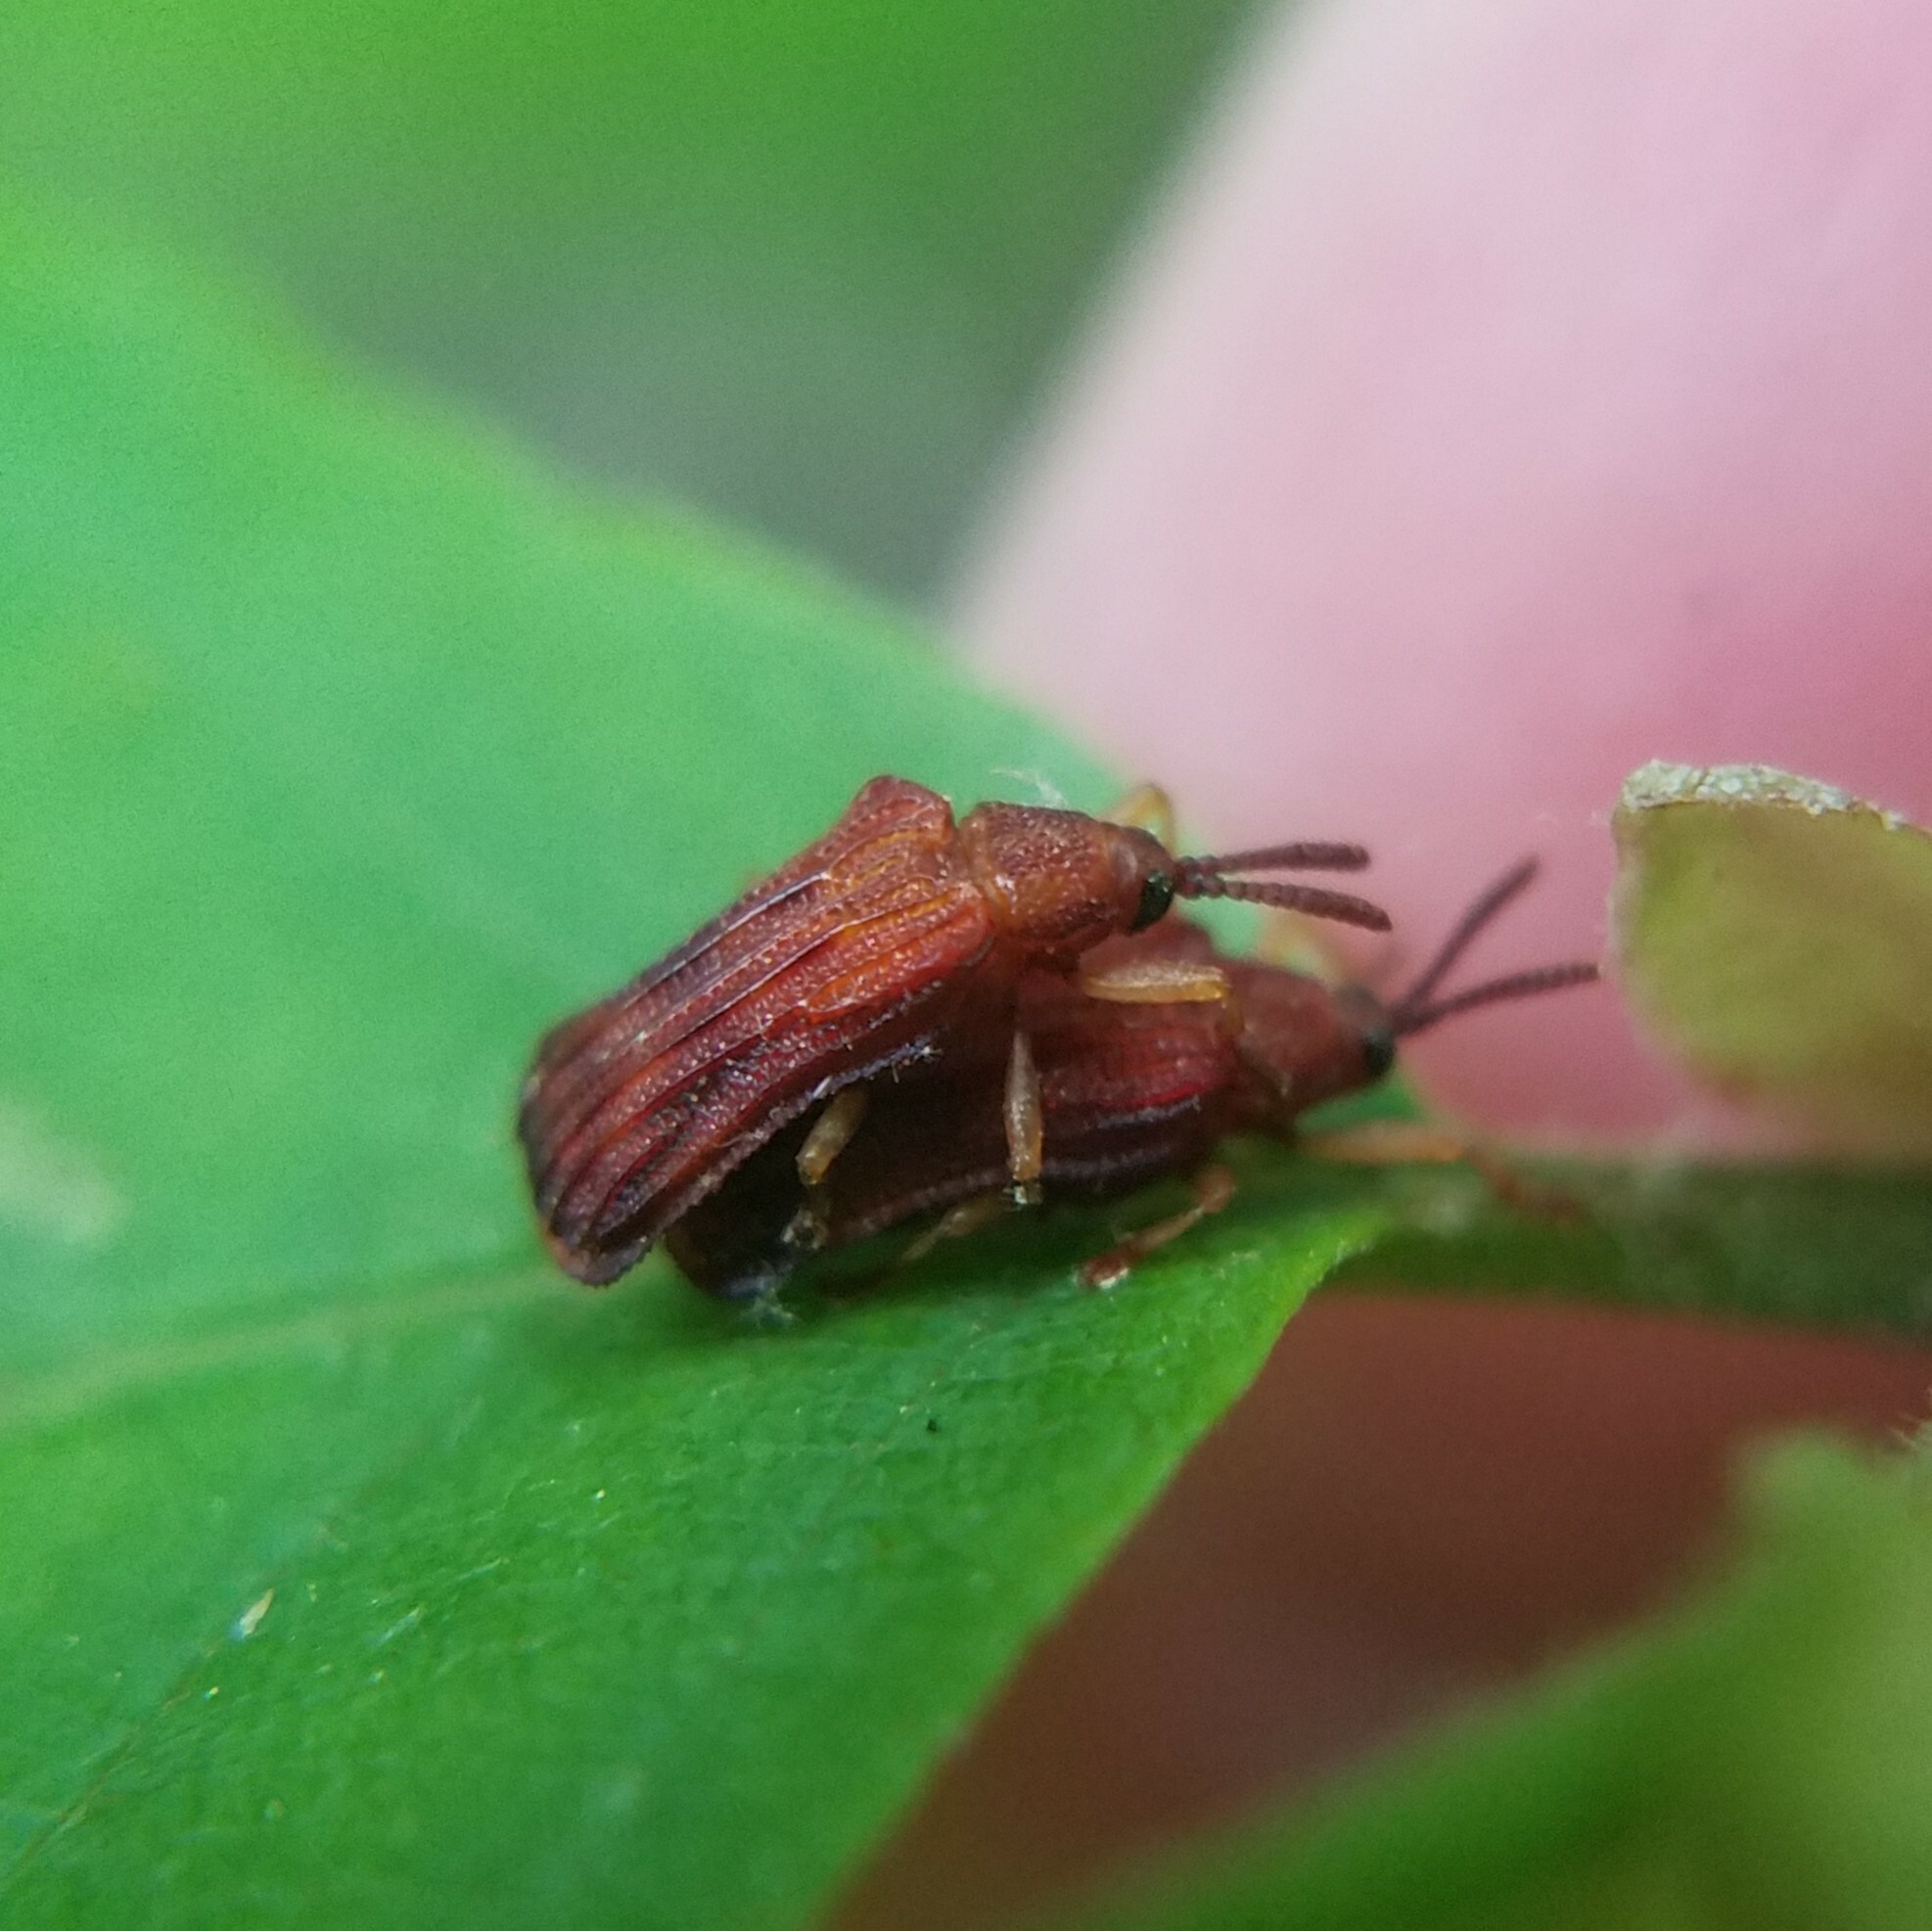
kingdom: Animalia
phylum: Arthropoda
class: Insecta
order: Coleoptera
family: Chrysomelidae
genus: Baliosus
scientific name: Baliosus nervosus
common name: Basswood leaf miner
